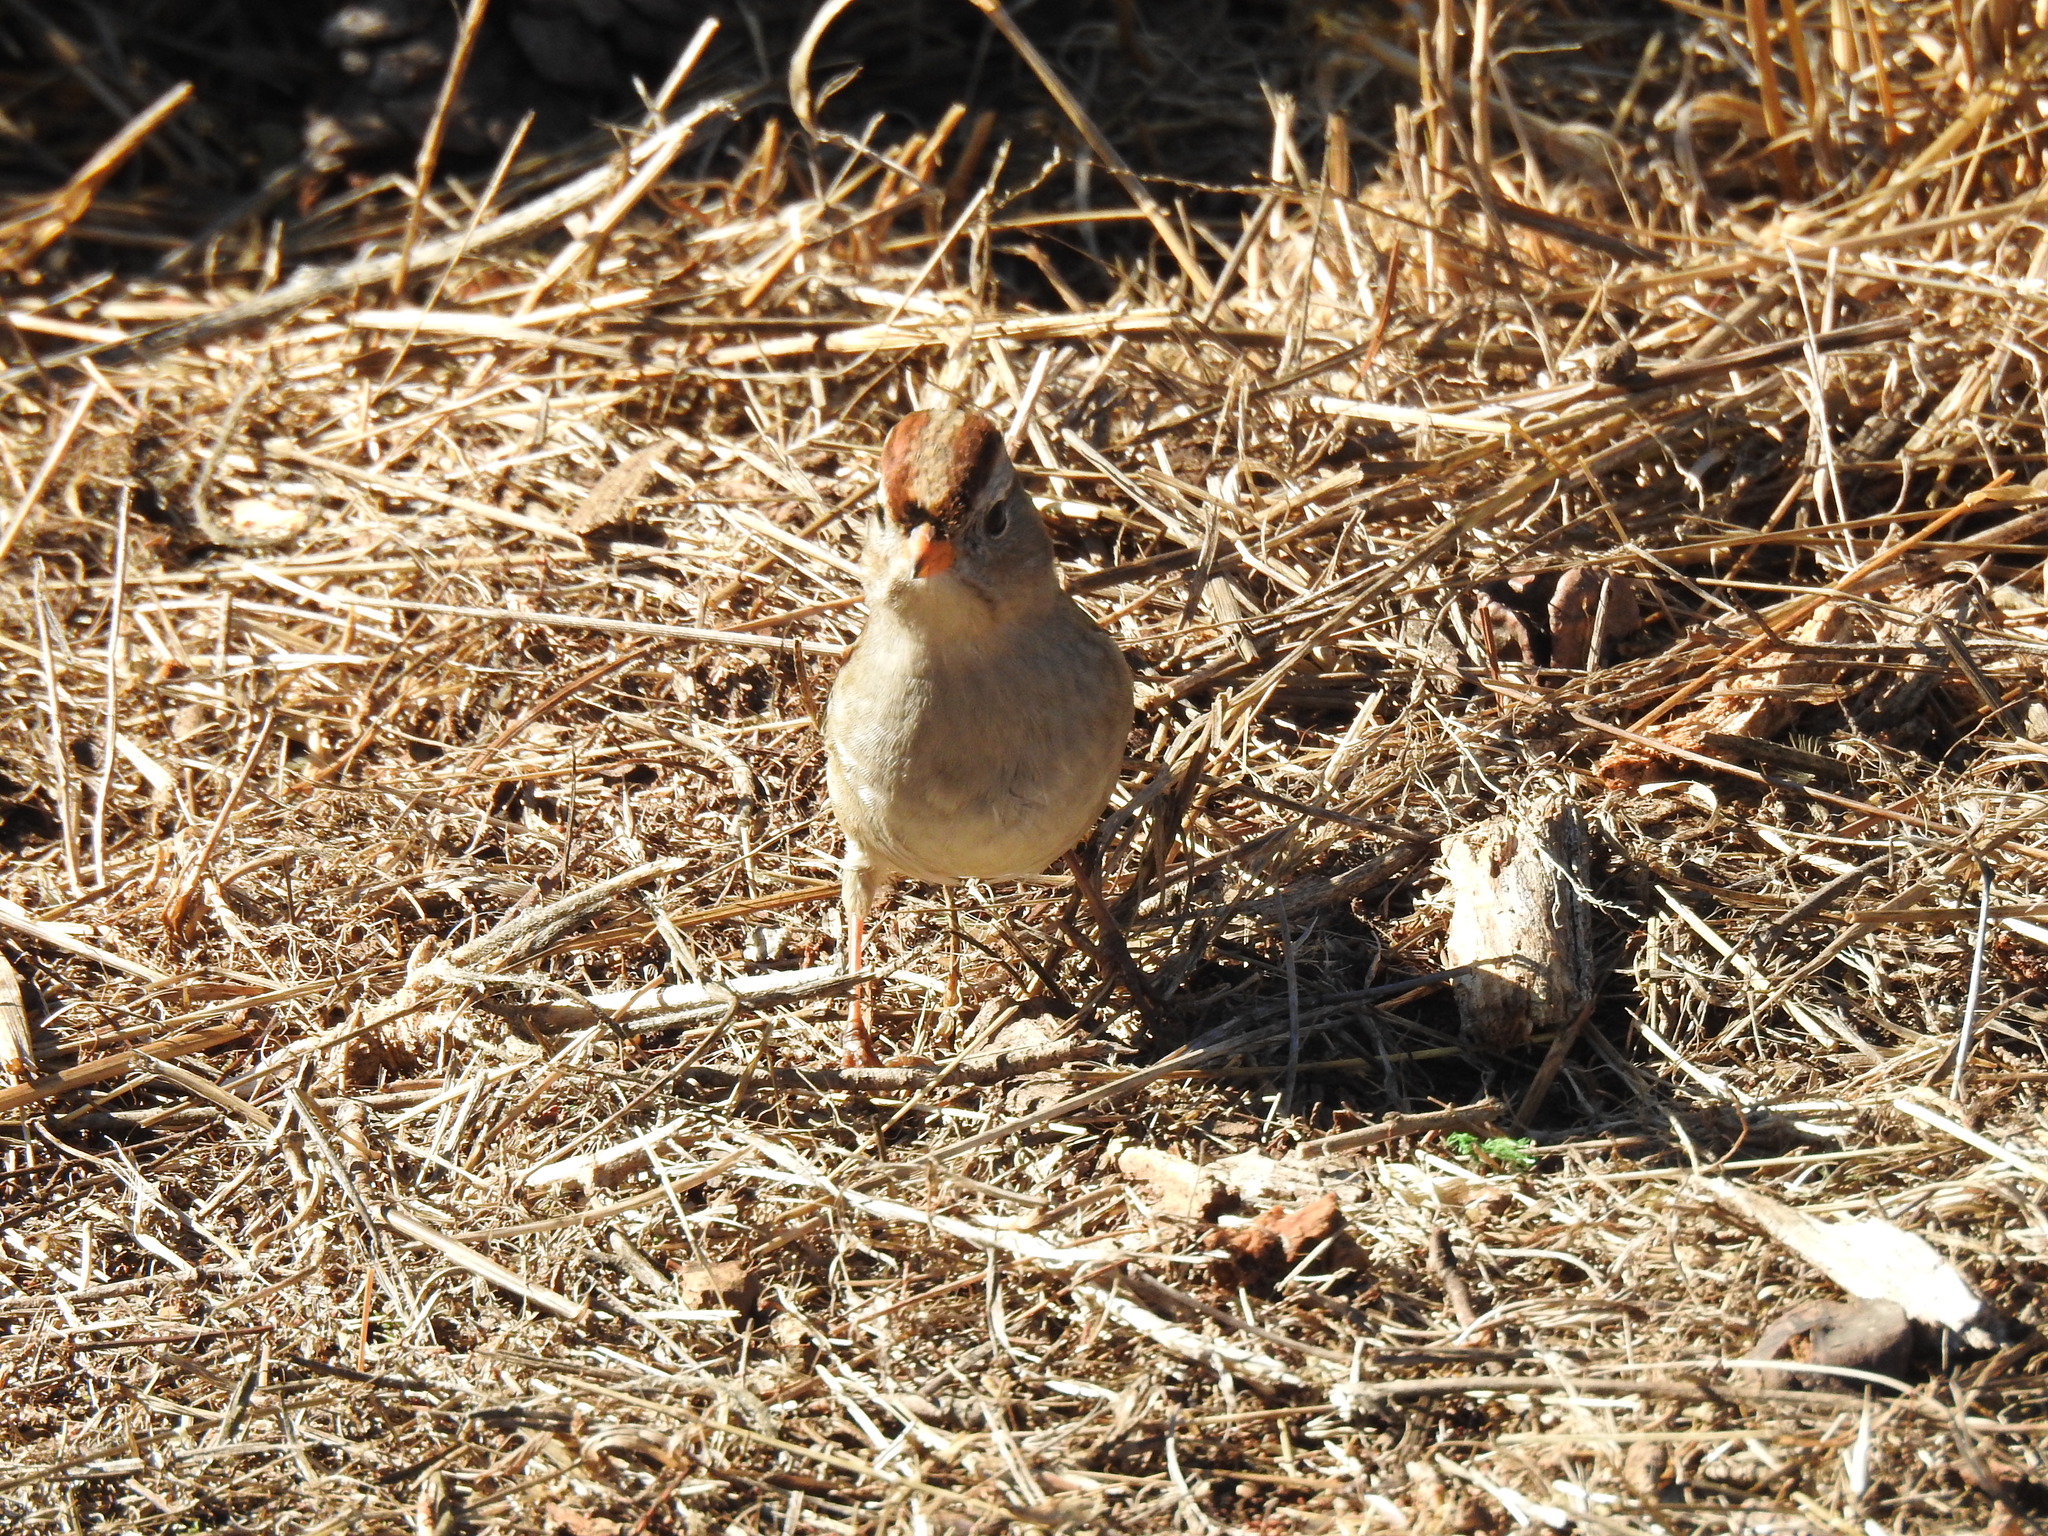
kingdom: Animalia
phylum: Chordata
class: Aves
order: Passeriformes
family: Passerellidae
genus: Zonotrichia
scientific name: Zonotrichia leucophrys
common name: White-crowned sparrow
